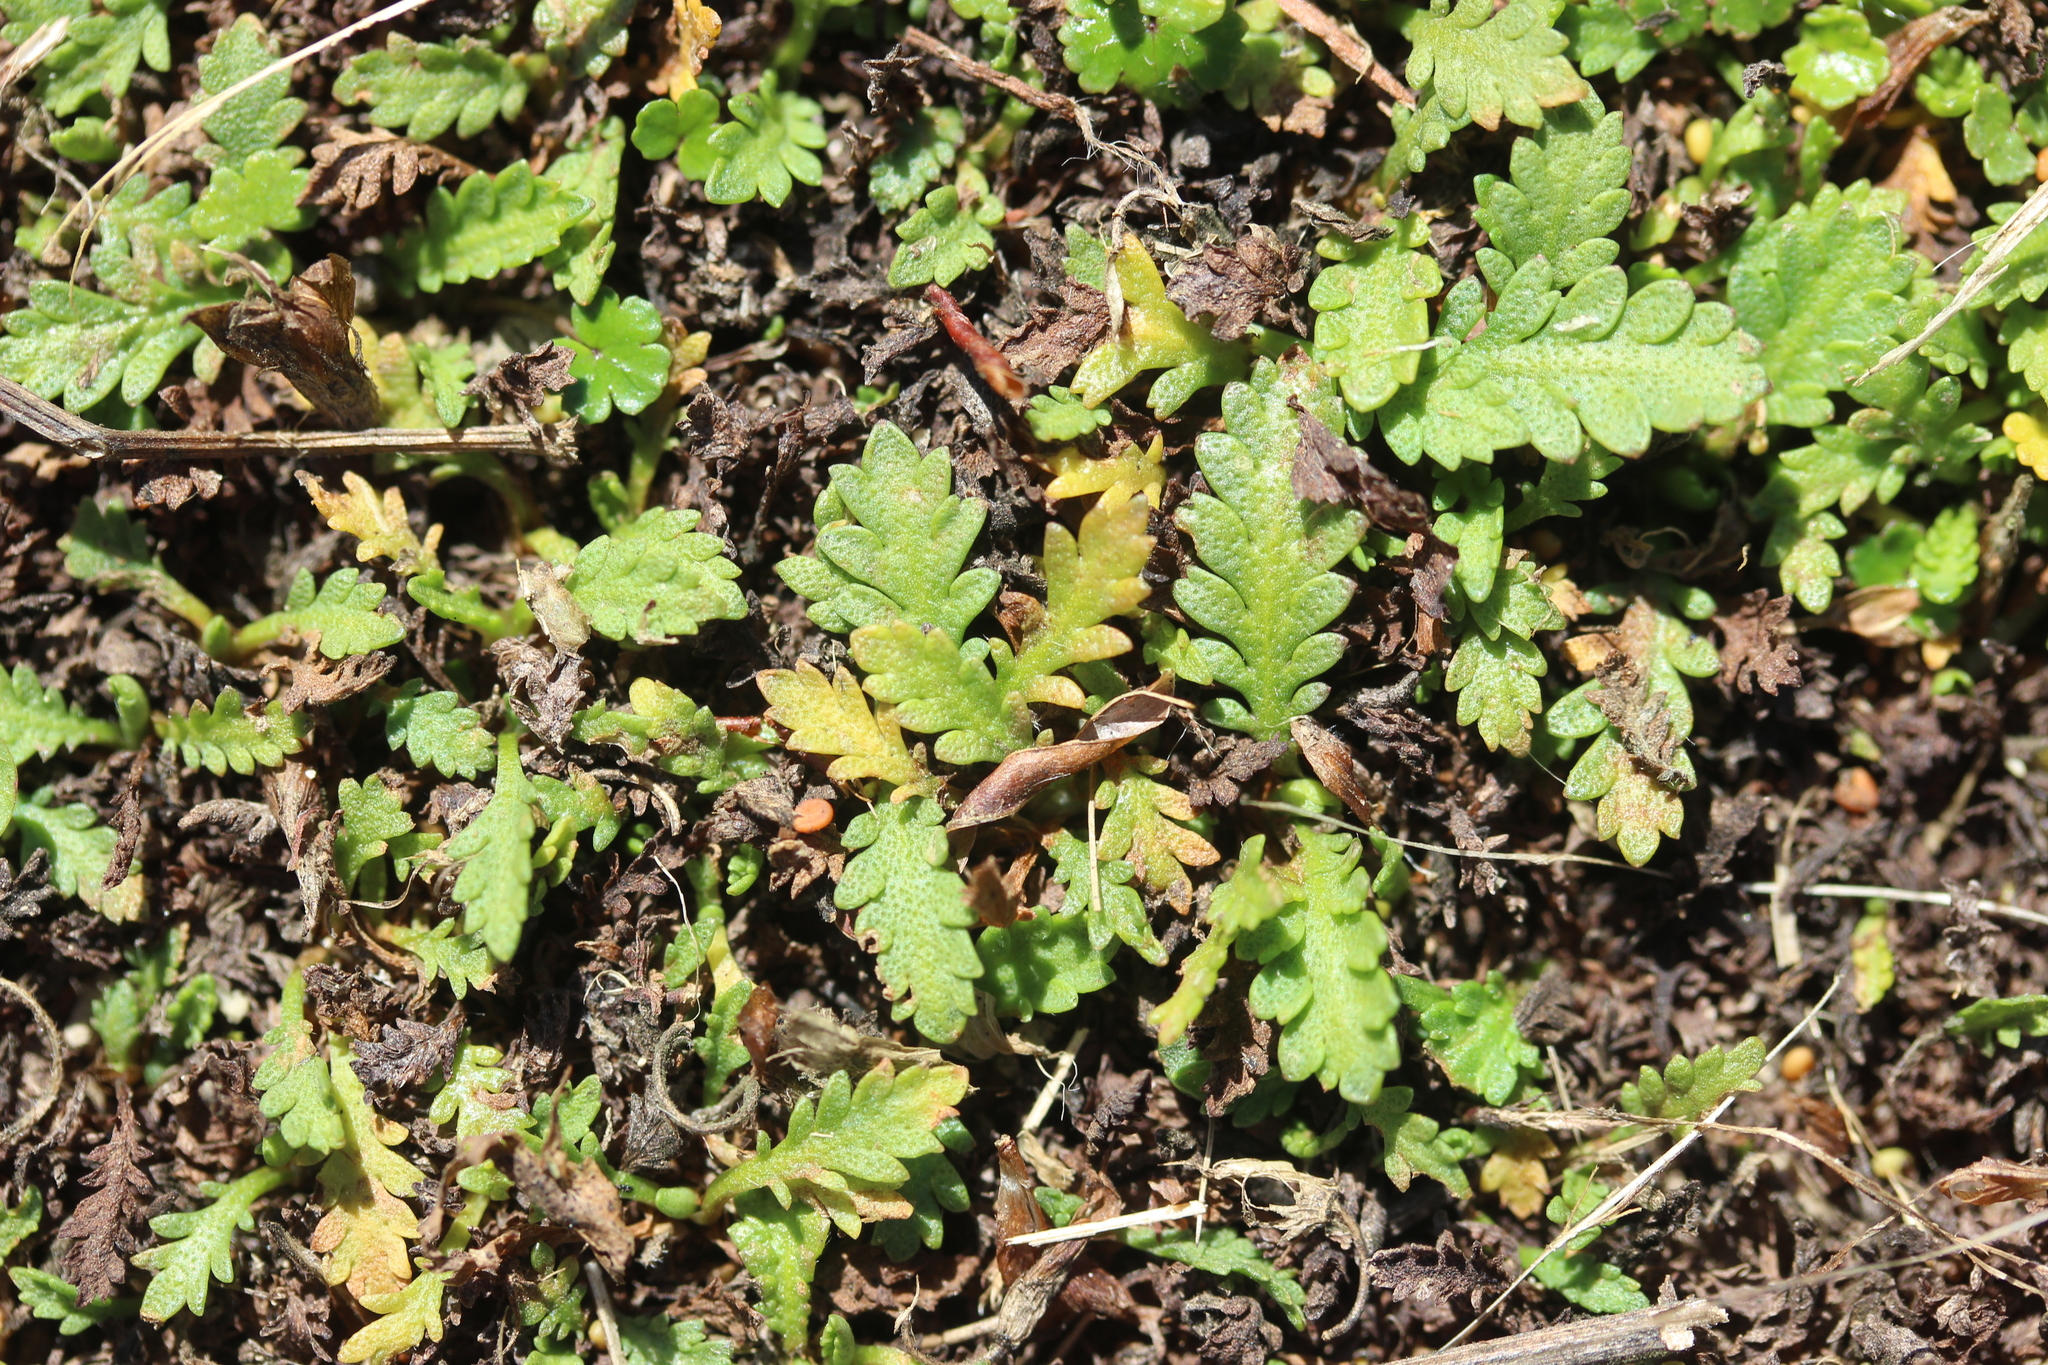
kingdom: Plantae
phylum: Tracheophyta
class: Magnoliopsida
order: Asterales
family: Asteraceae
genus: Leptinella
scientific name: Leptinella dioica
